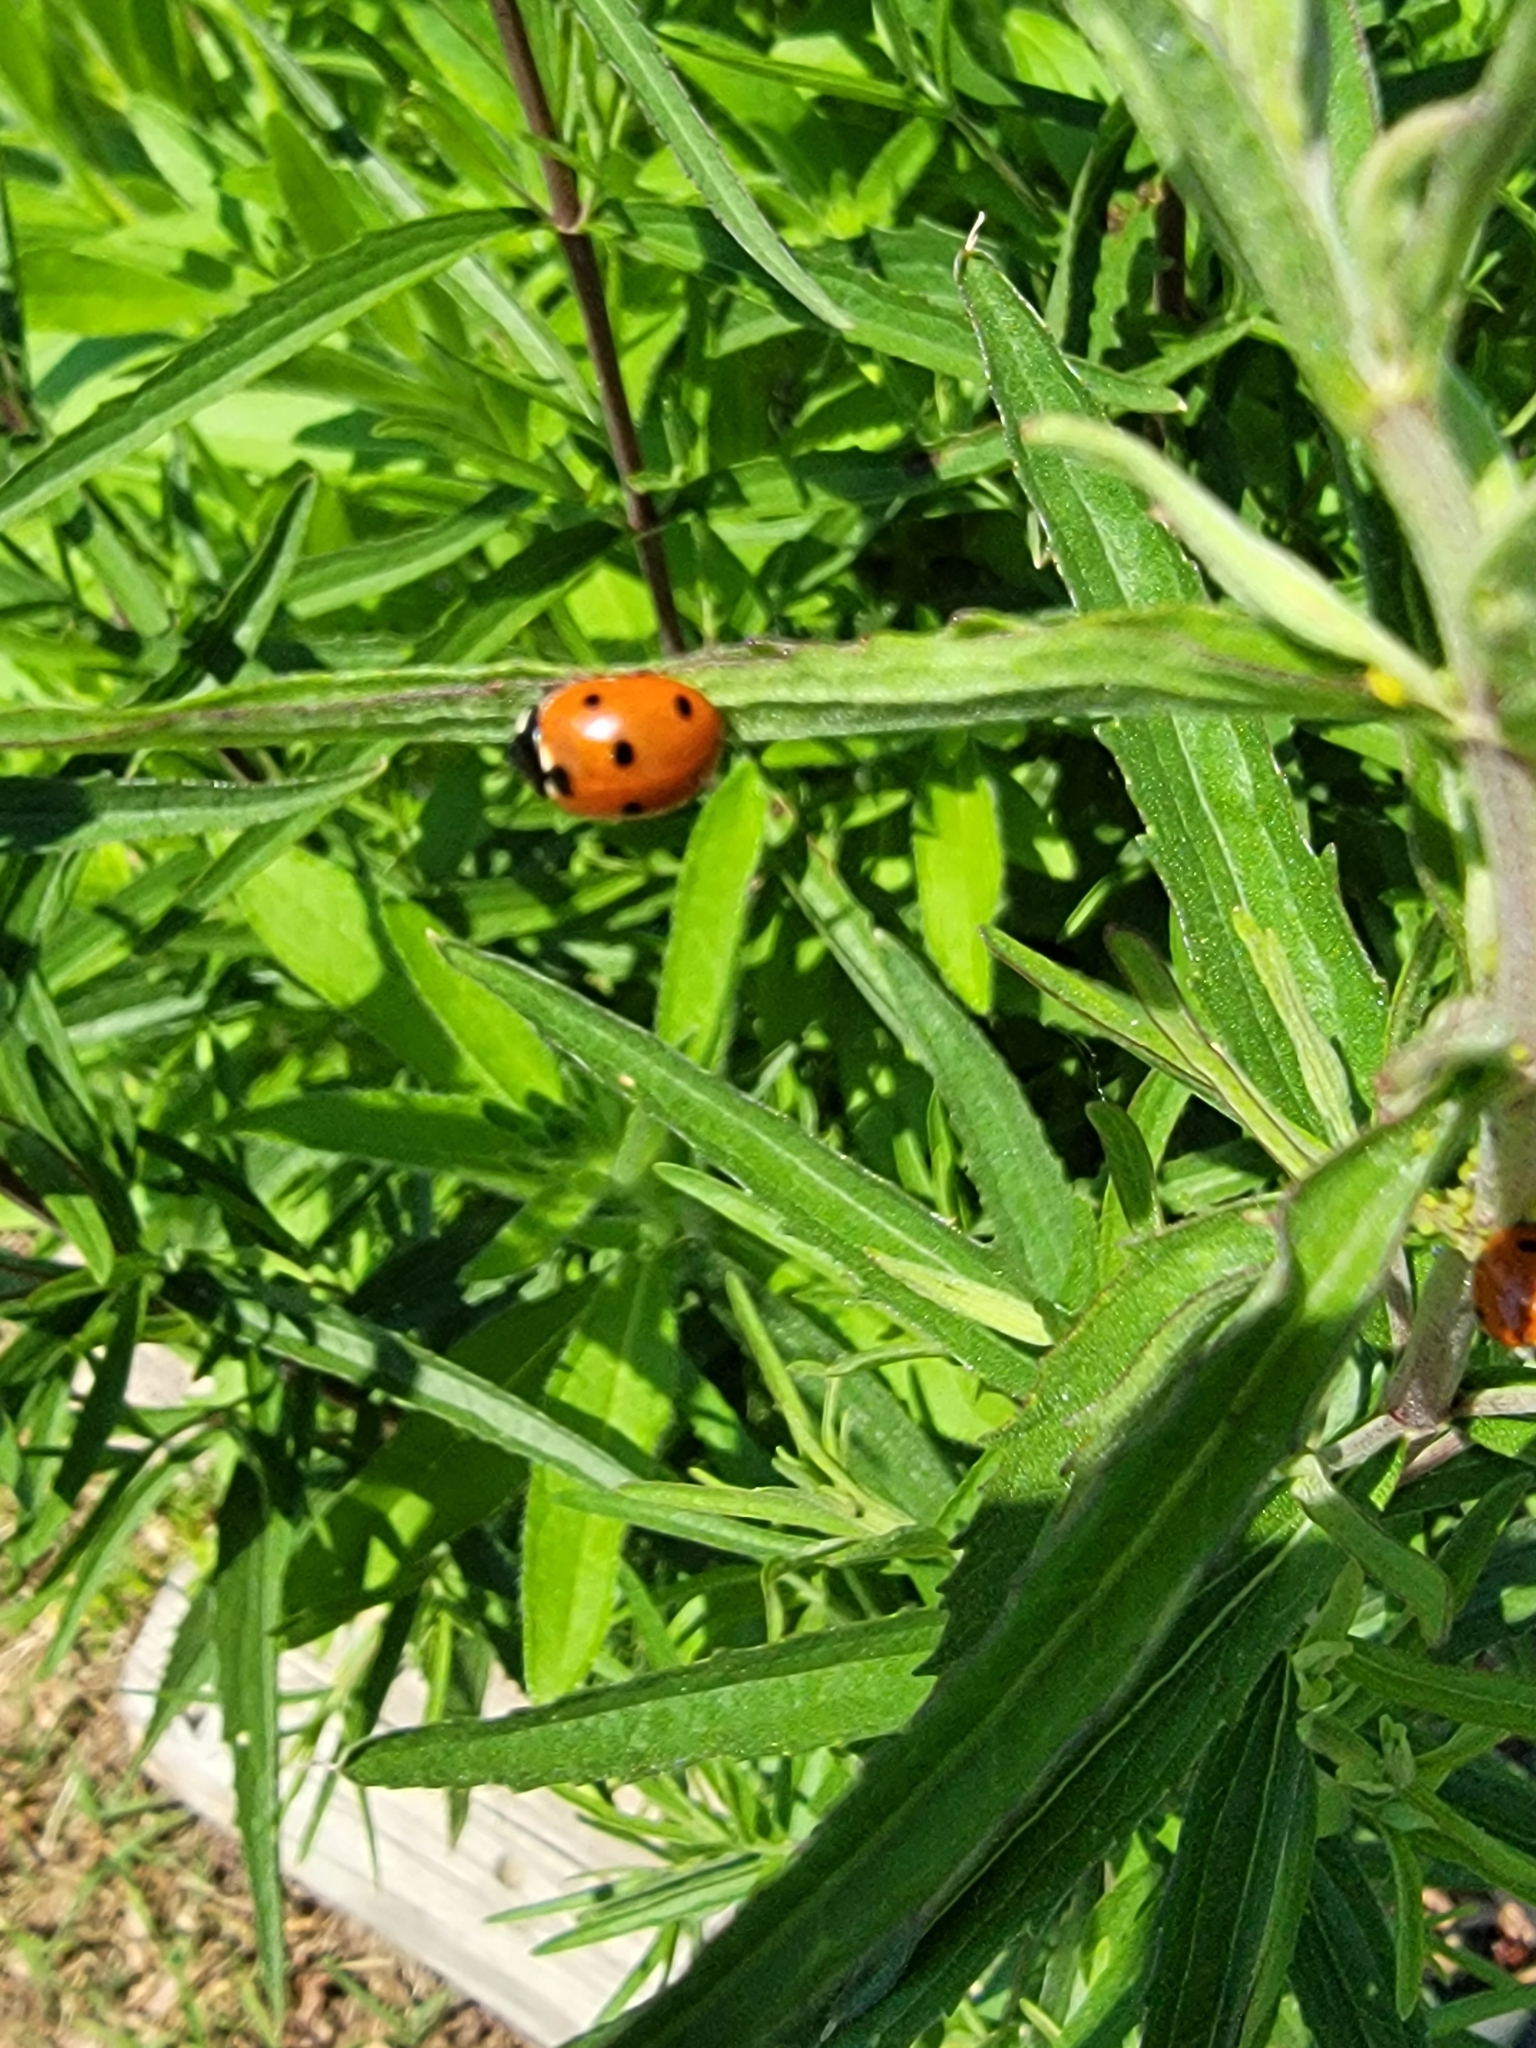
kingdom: Animalia
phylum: Arthropoda
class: Insecta
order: Coleoptera
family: Coccinellidae
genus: Coccinella
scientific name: Coccinella septempunctata
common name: Sevenspotted lady beetle
